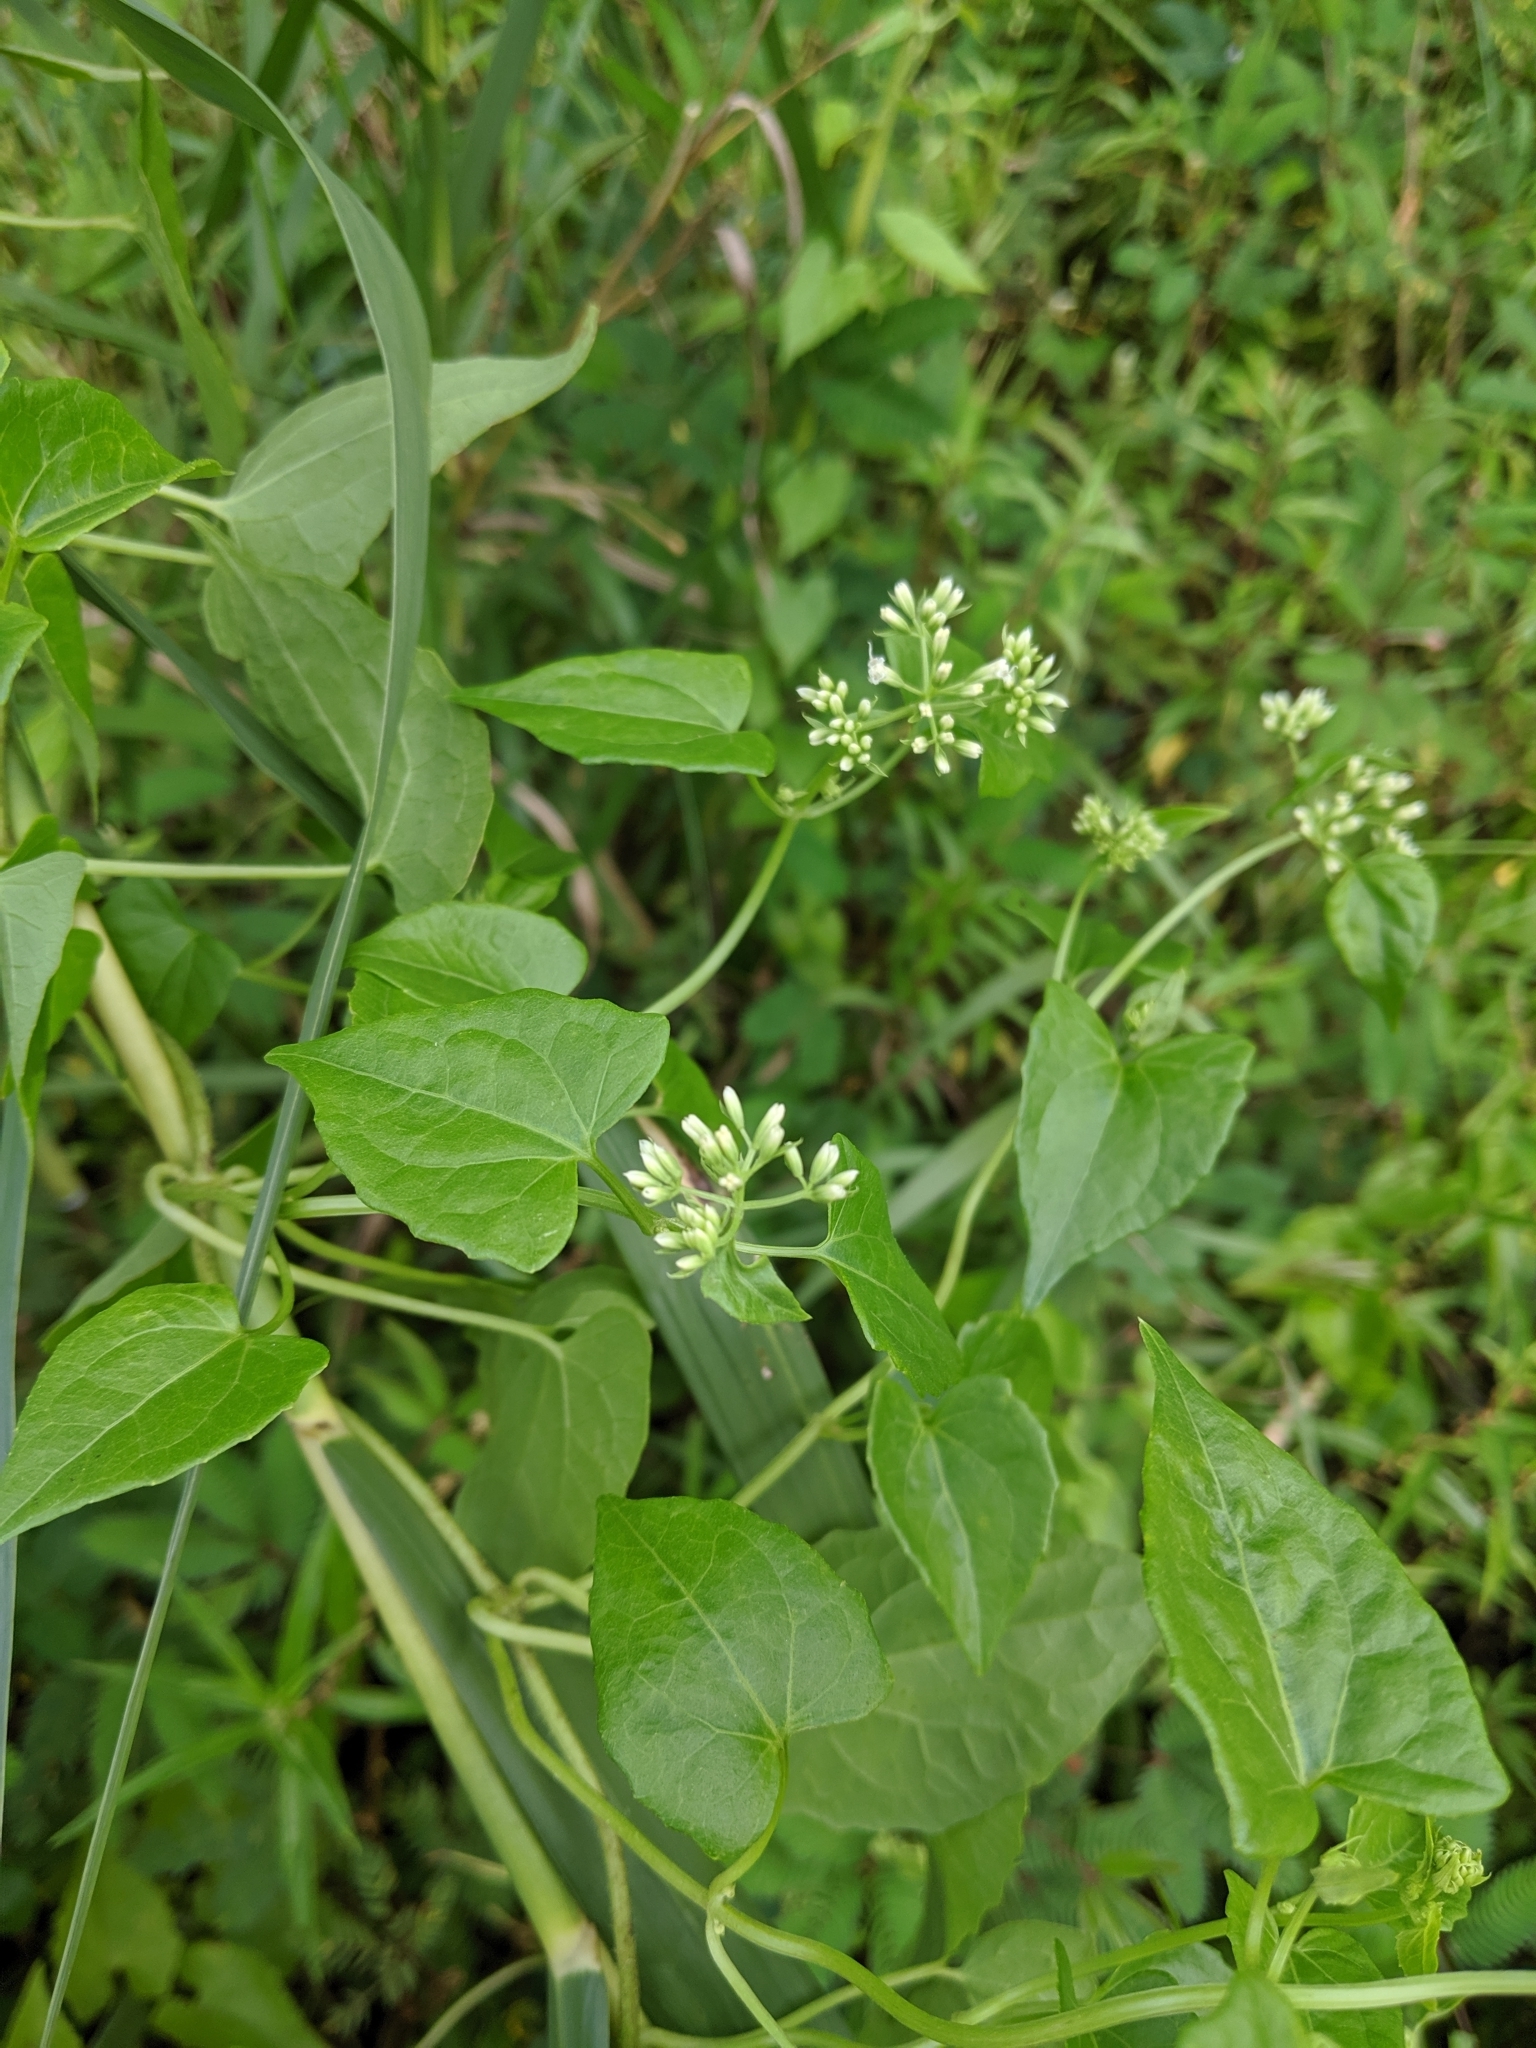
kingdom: Plantae
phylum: Tracheophyta
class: Magnoliopsida
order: Asterales
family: Asteraceae
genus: Mikania
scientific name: Mikania micrantha
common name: Mile-a-minute
